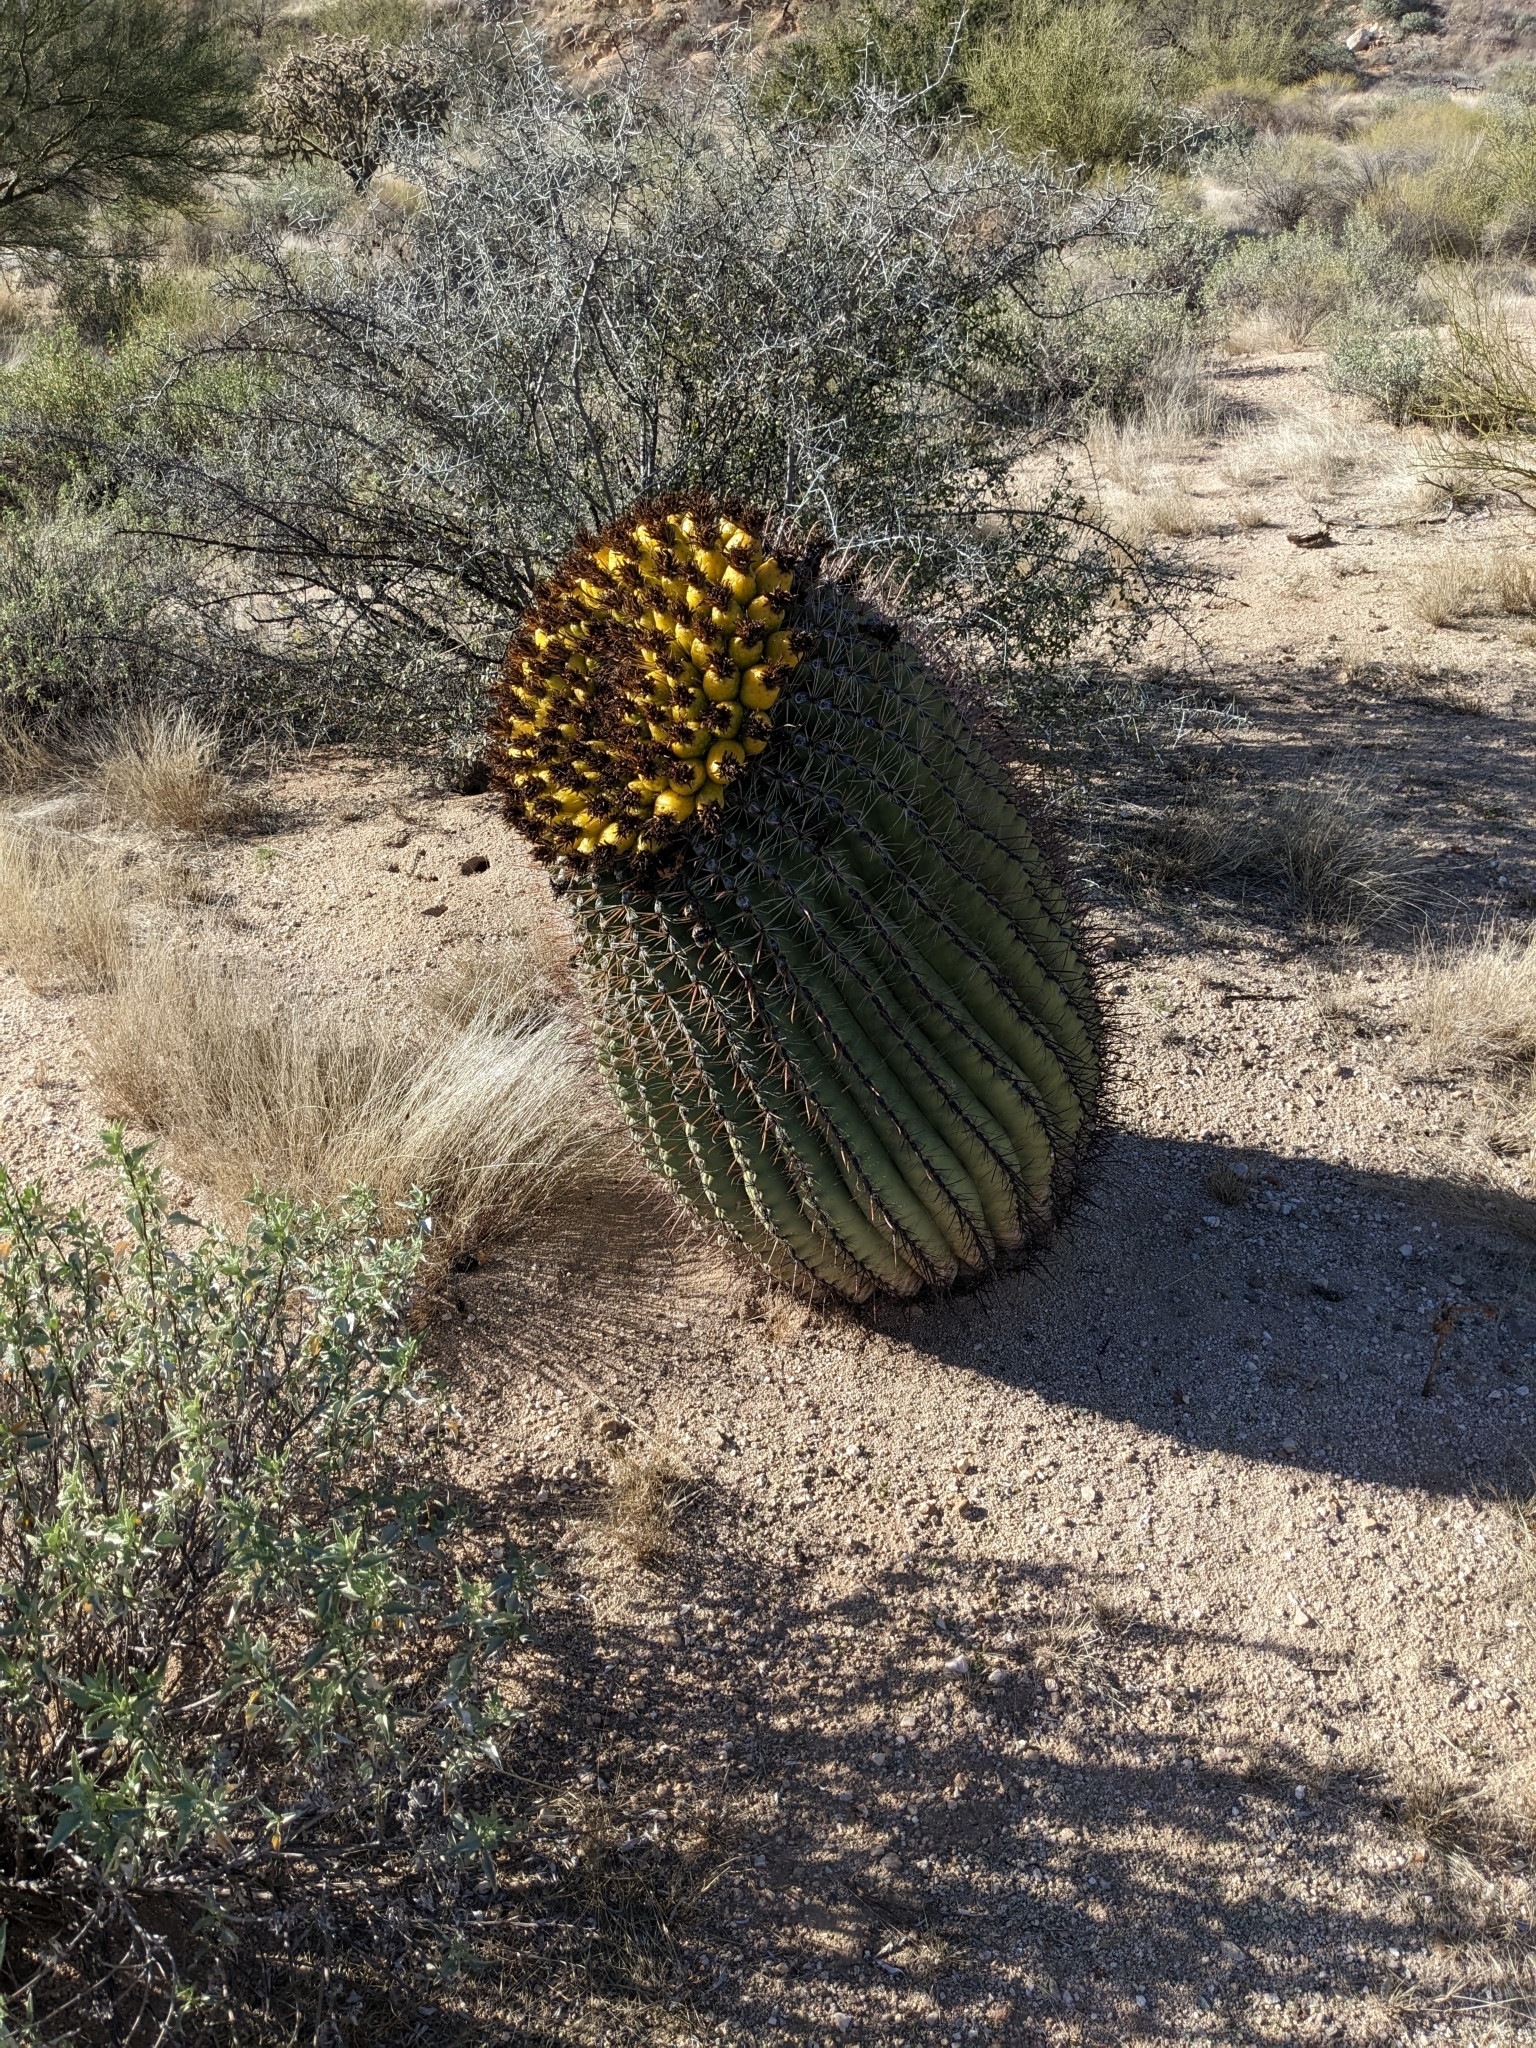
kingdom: Plantae
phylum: Tracheophyta
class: Magnoliopsida
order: Caryophyllales
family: Cactaceae
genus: Ferocactus
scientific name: Ferocactus wislizeni
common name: Candy barrel cactus
